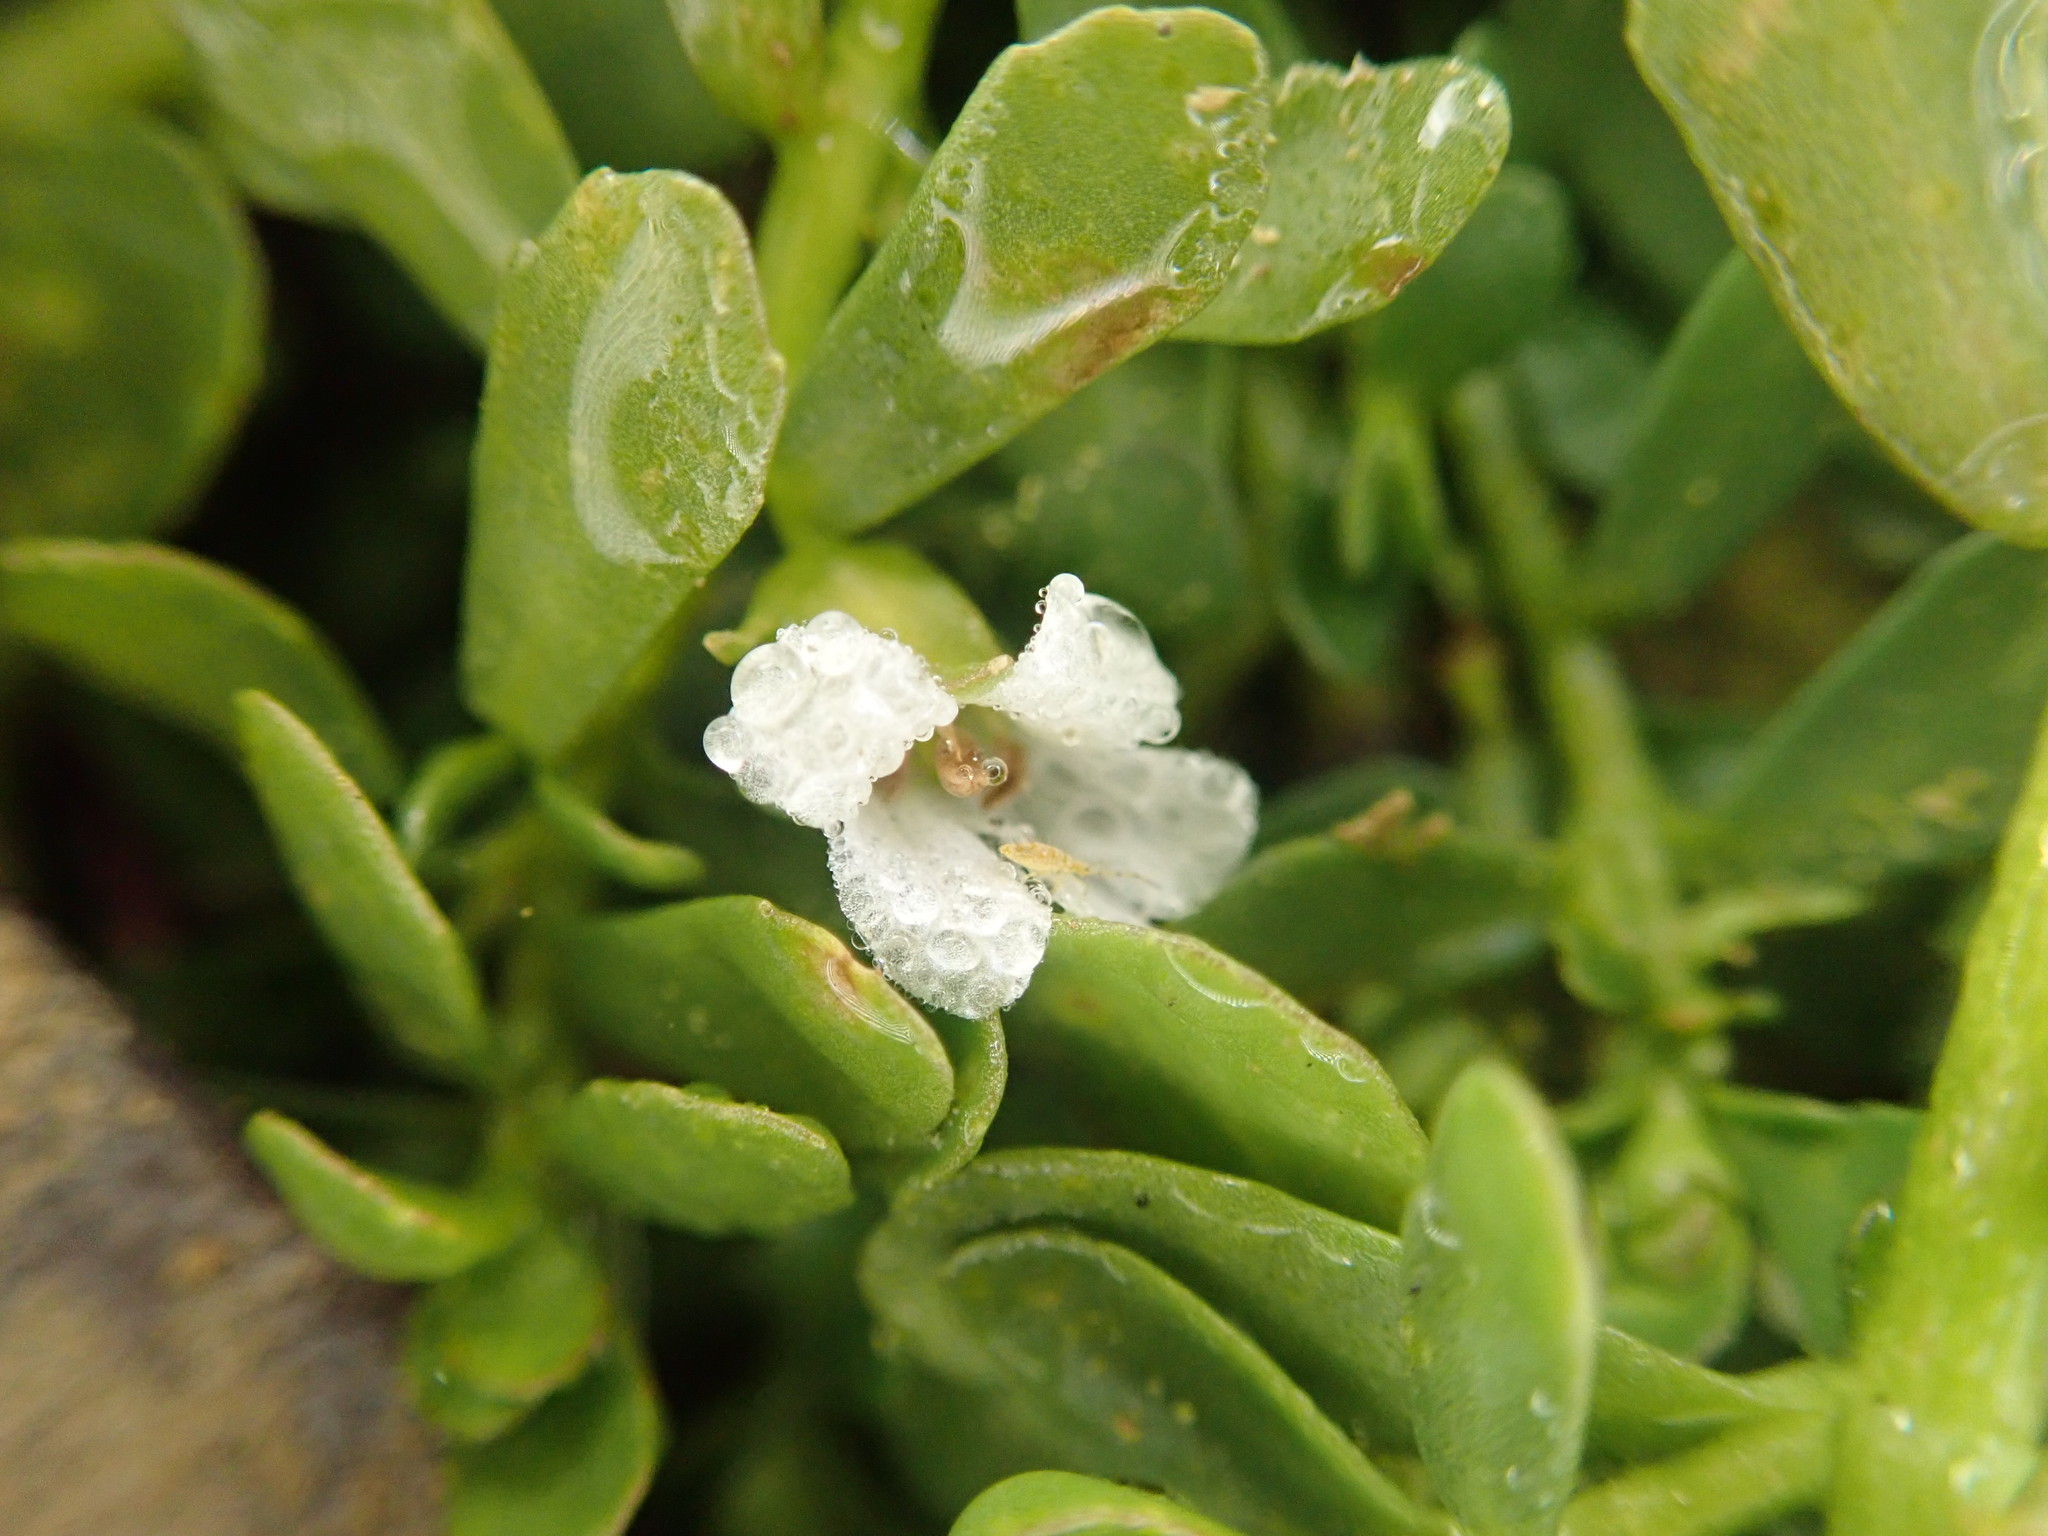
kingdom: Plantae
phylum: Tracheophyta
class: Magnoliopsida
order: Lamiales
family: Plantaginaceae
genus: Bacopa
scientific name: Bacopa monnieri
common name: Indian-pennywort
